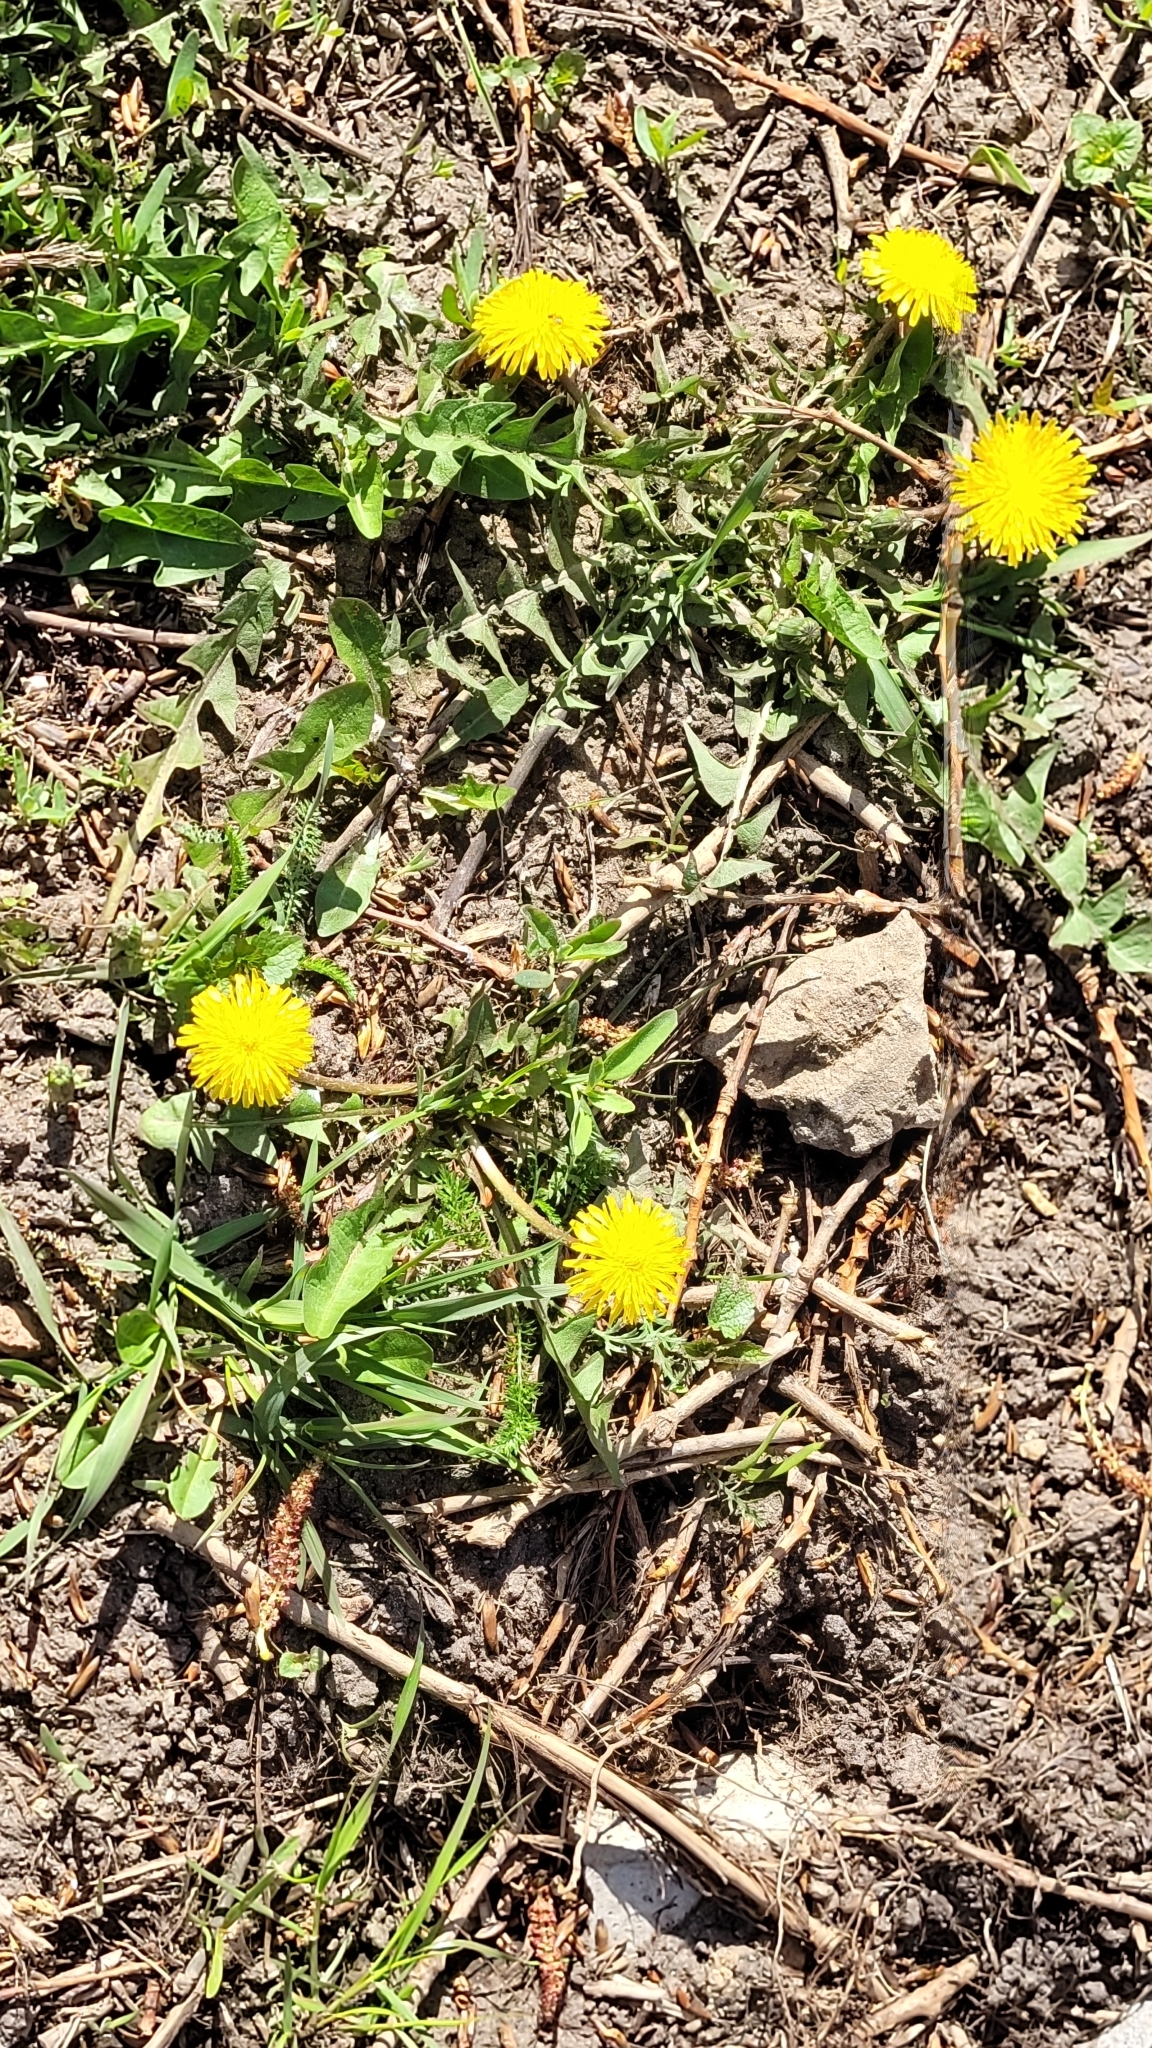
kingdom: Plantae
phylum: Tracheophyta
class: Magnoliopsida
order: Asterales
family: Asteraceae
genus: Taraxacum
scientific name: Taraxacum officinale
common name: Common dandelion
